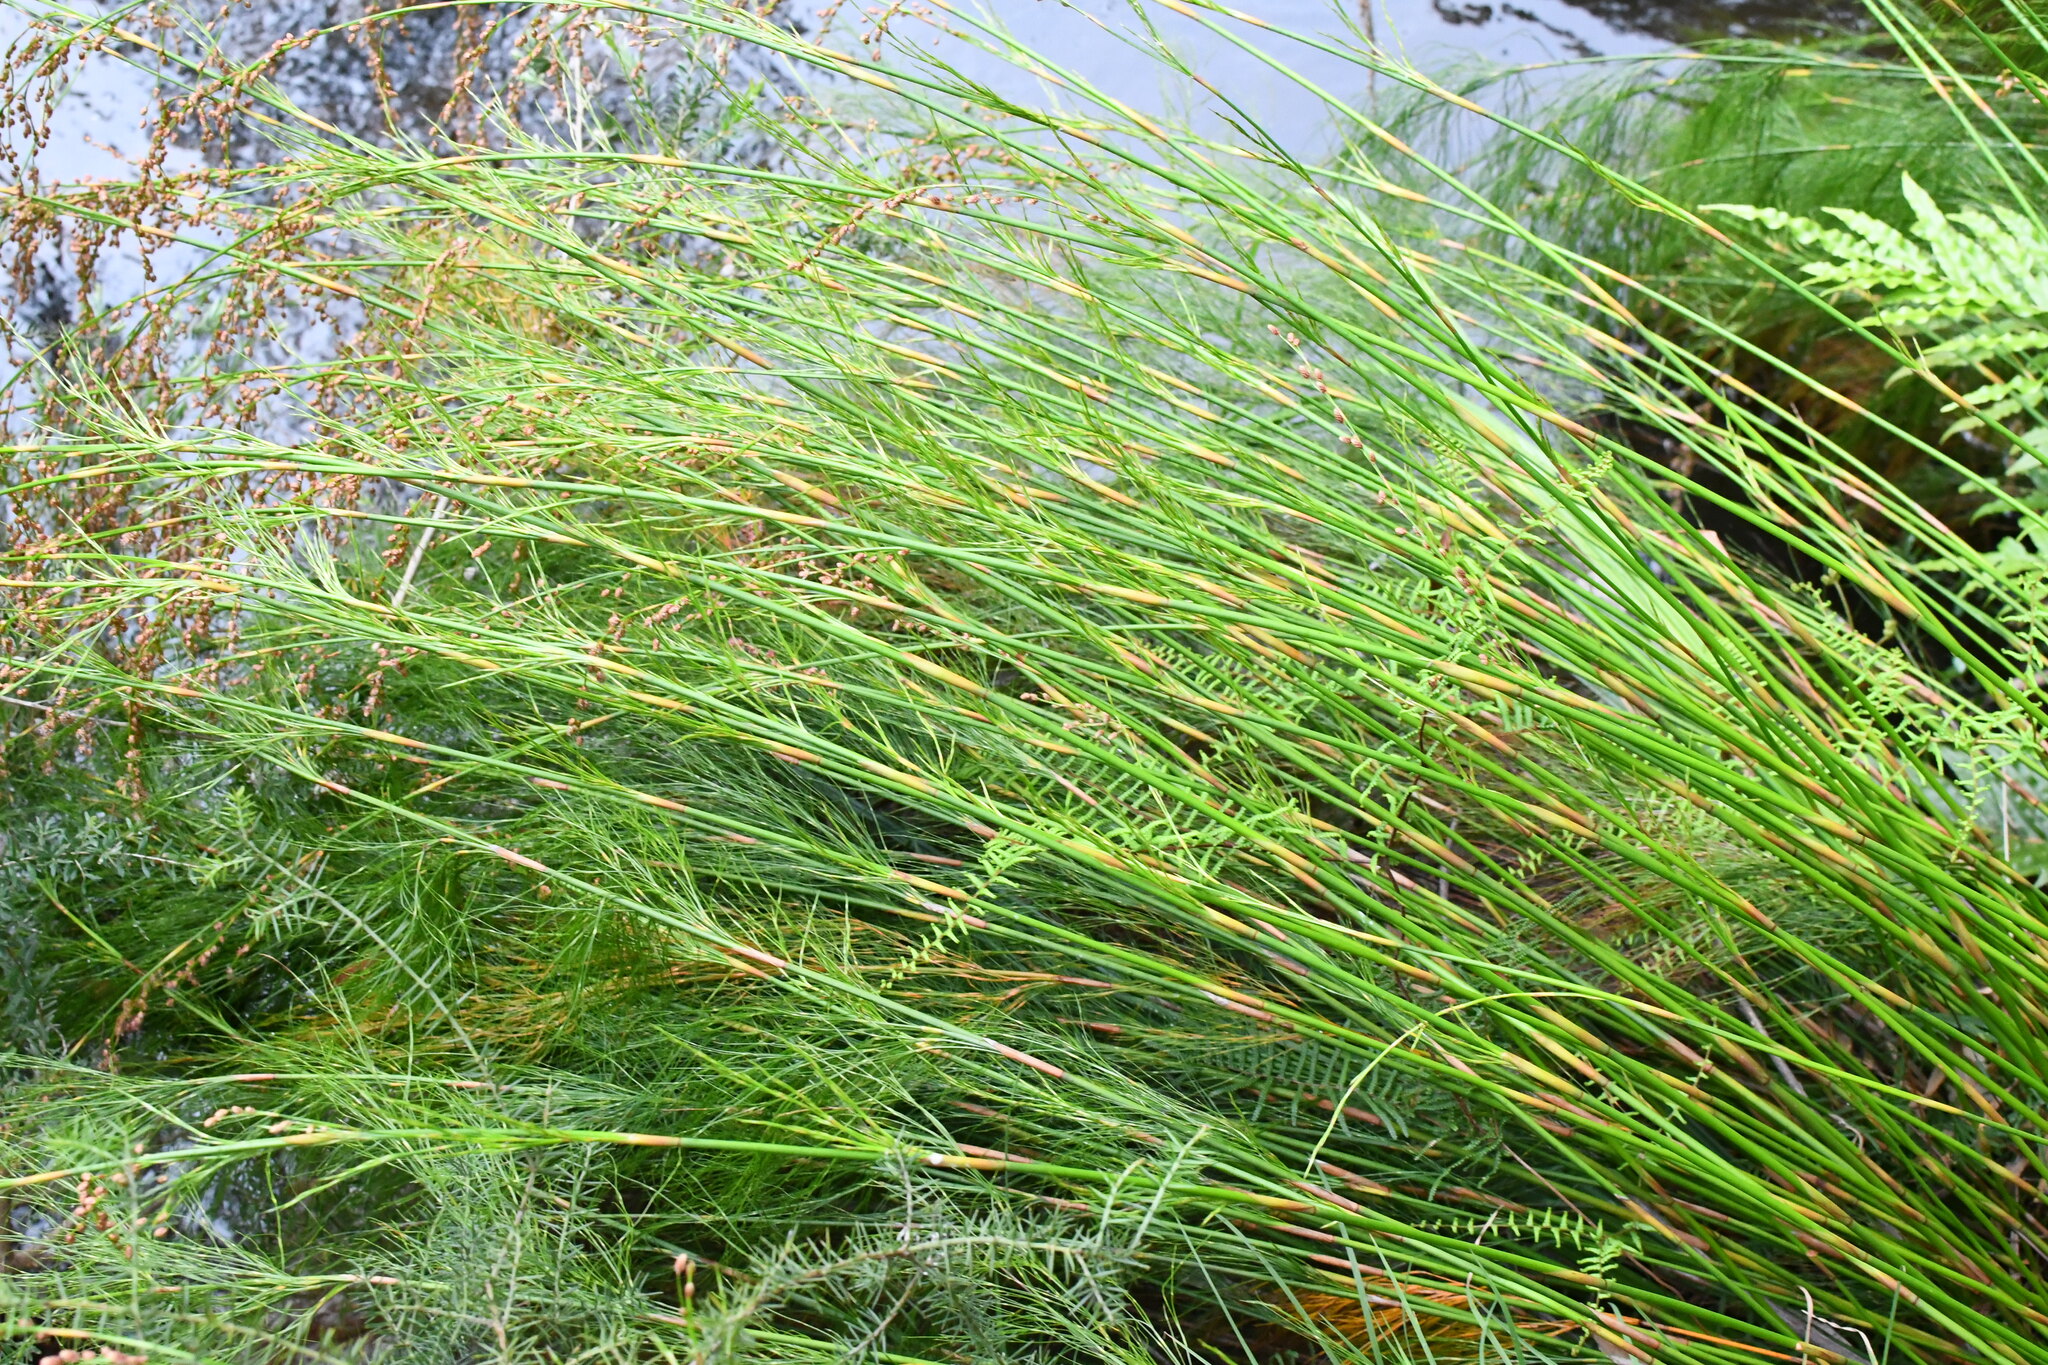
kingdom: Plantae
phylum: Tracheophyta
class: Liliopsida
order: Poales
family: Restionaceae
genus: Baloskion
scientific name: Baloskion tetraphyllum
